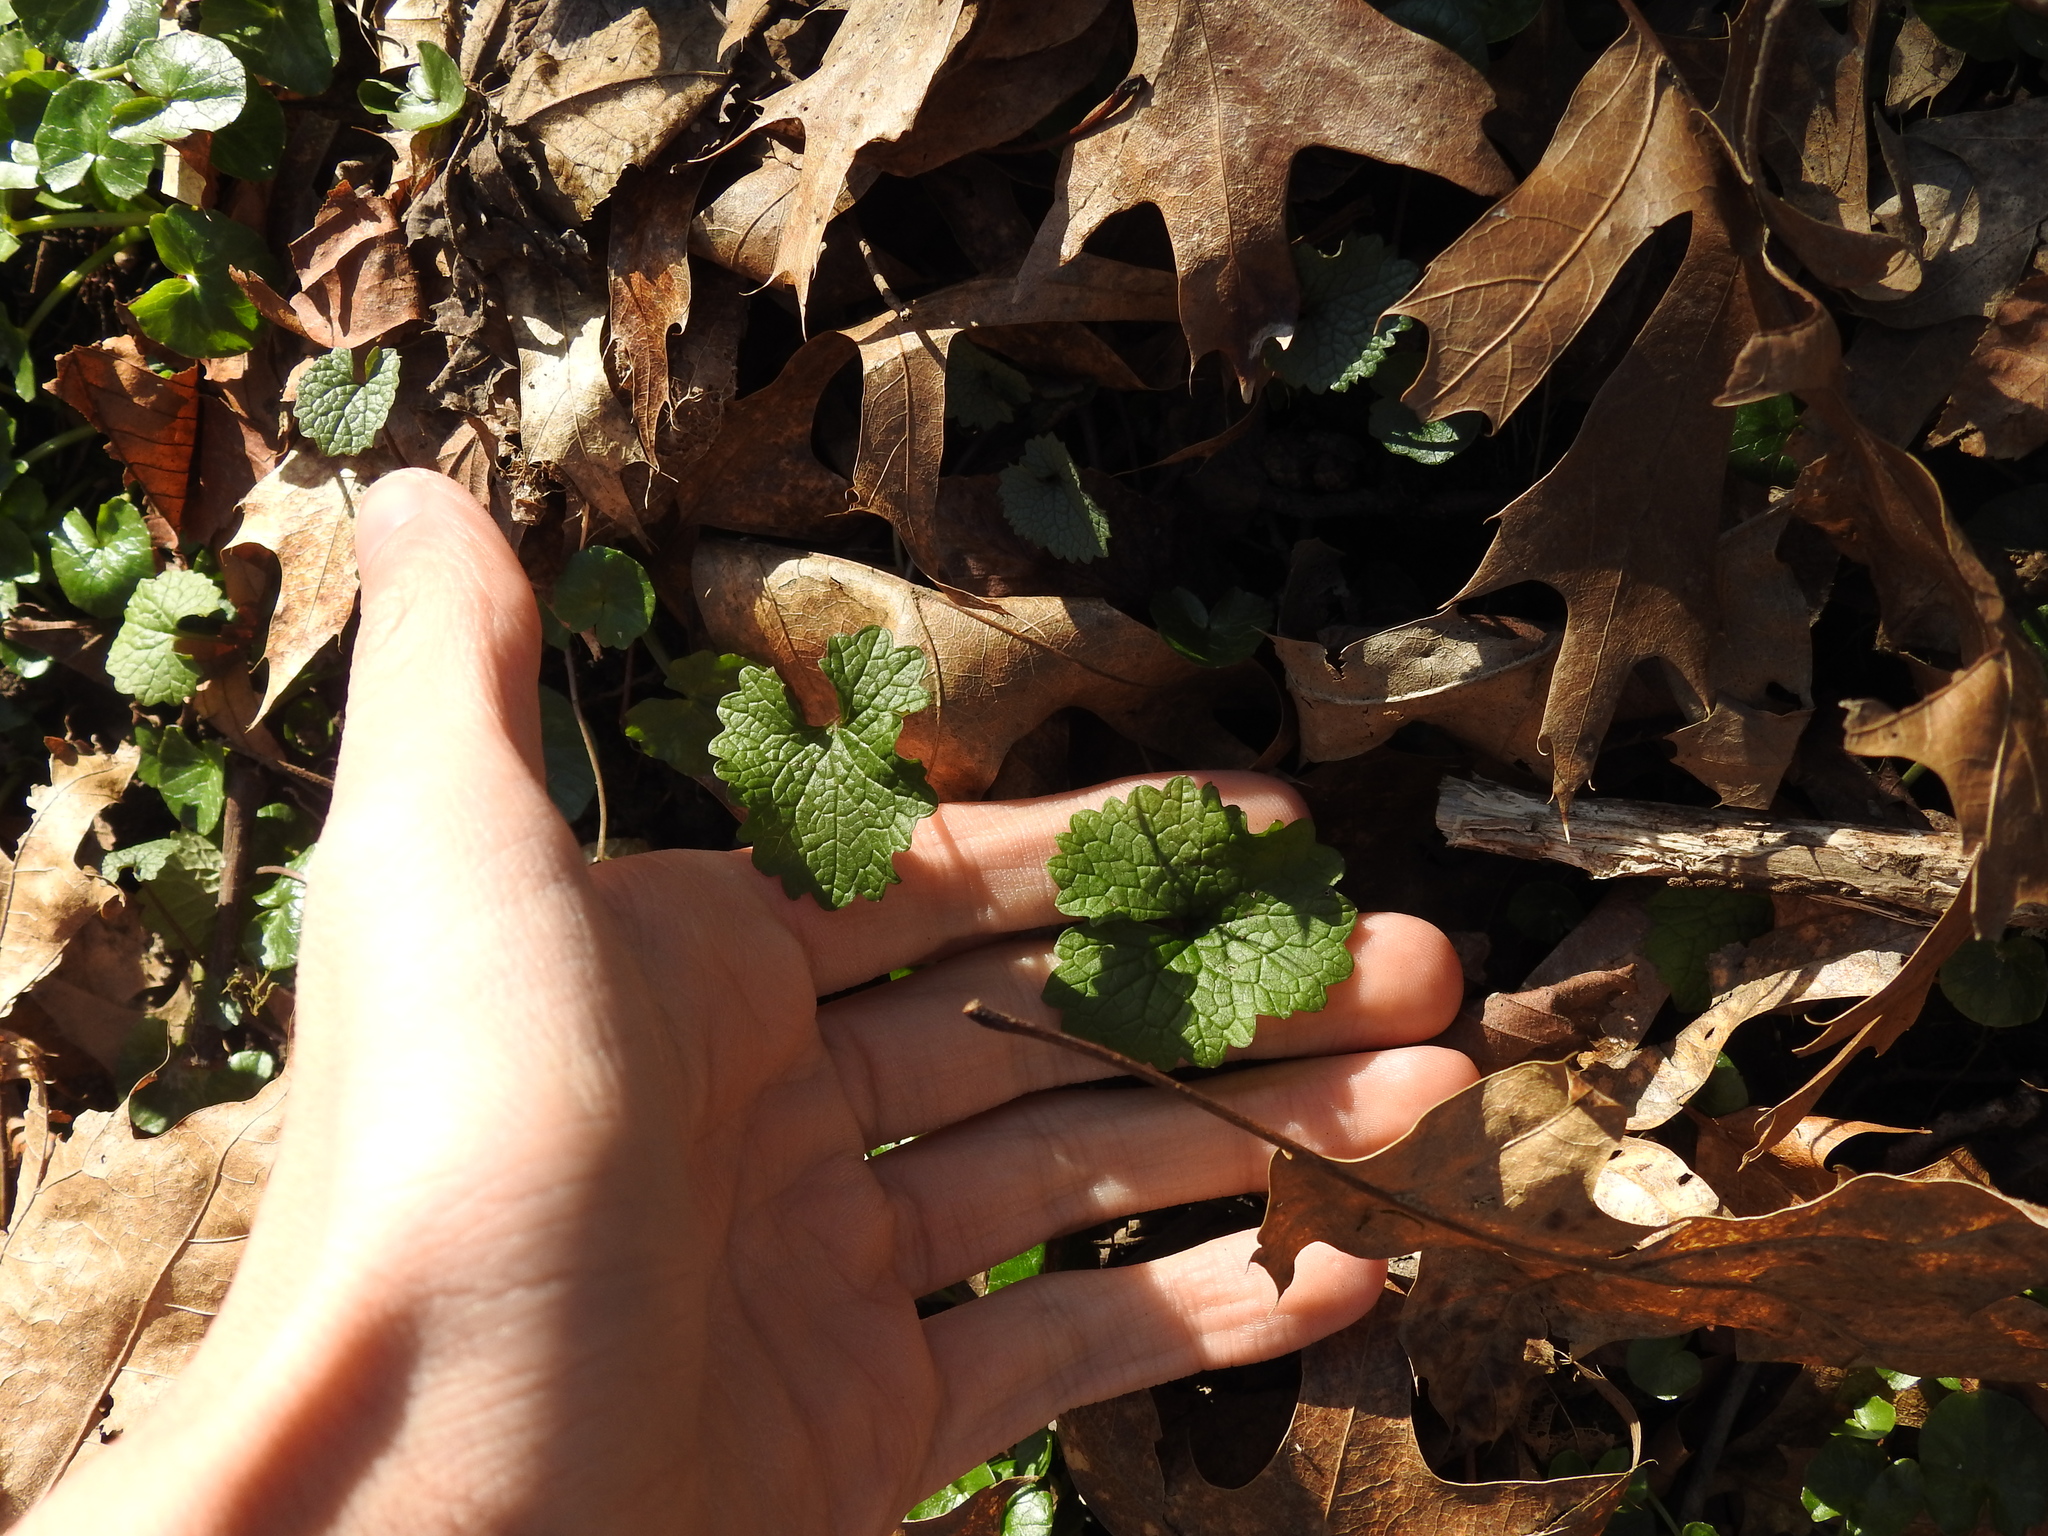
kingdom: Plantae
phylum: Tracheophyta
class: Magnoliopsida
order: Brassicales
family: Brassicaceae
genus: Alliaria
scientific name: Alliaria petiolata
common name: Garlic mustard
